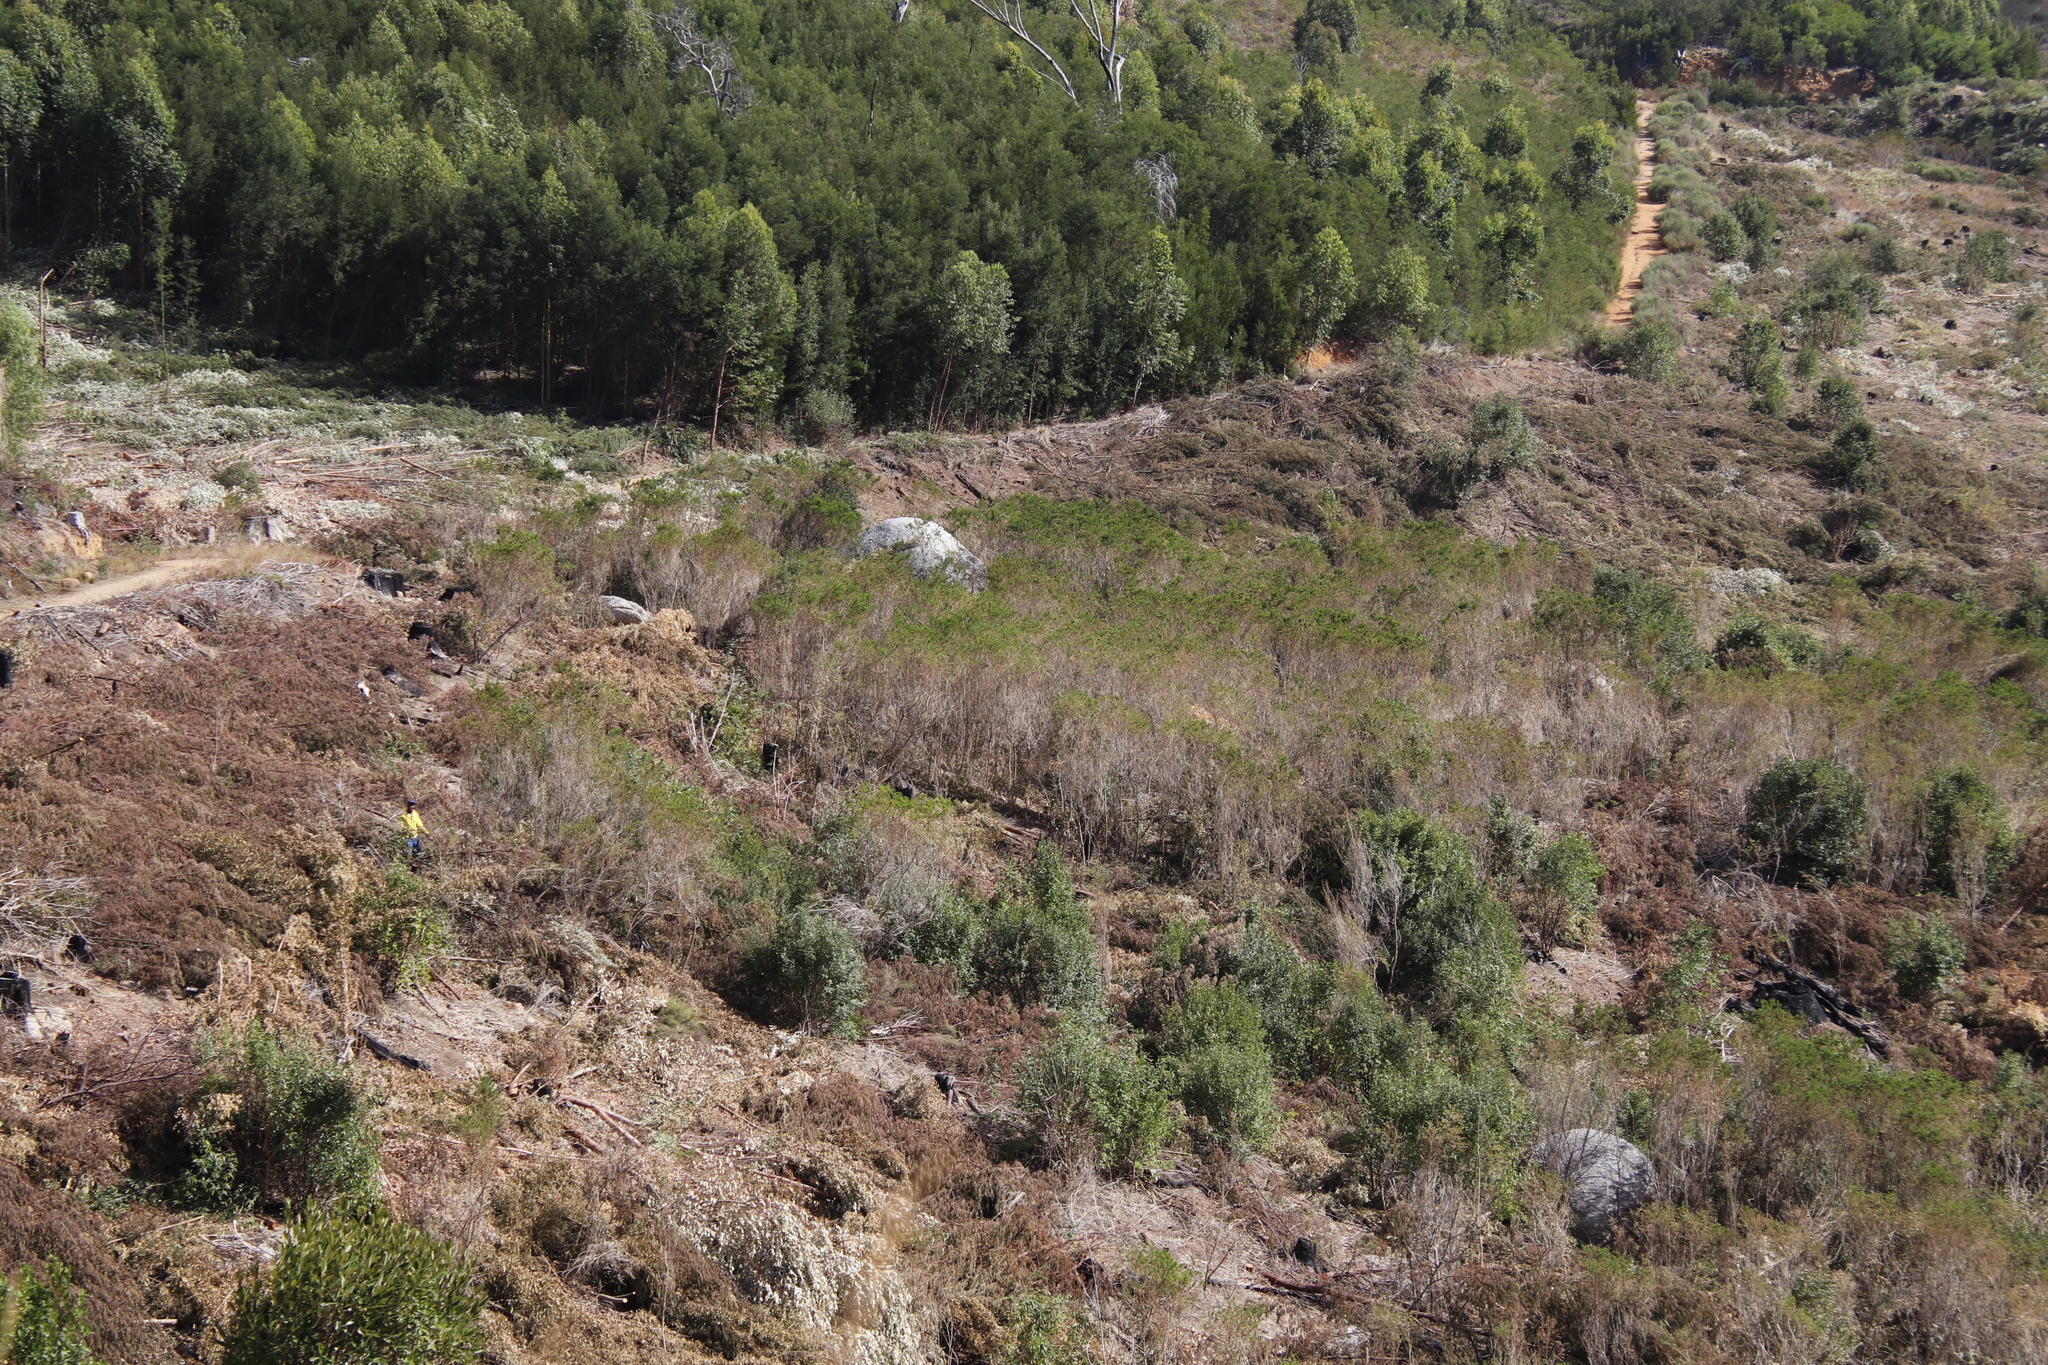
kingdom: Plantae
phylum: Tracheophyta
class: Magnoliopsida
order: Fabales
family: Fabaceae
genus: Psoralea
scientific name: Psoralea pinnata
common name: African scurfpea
